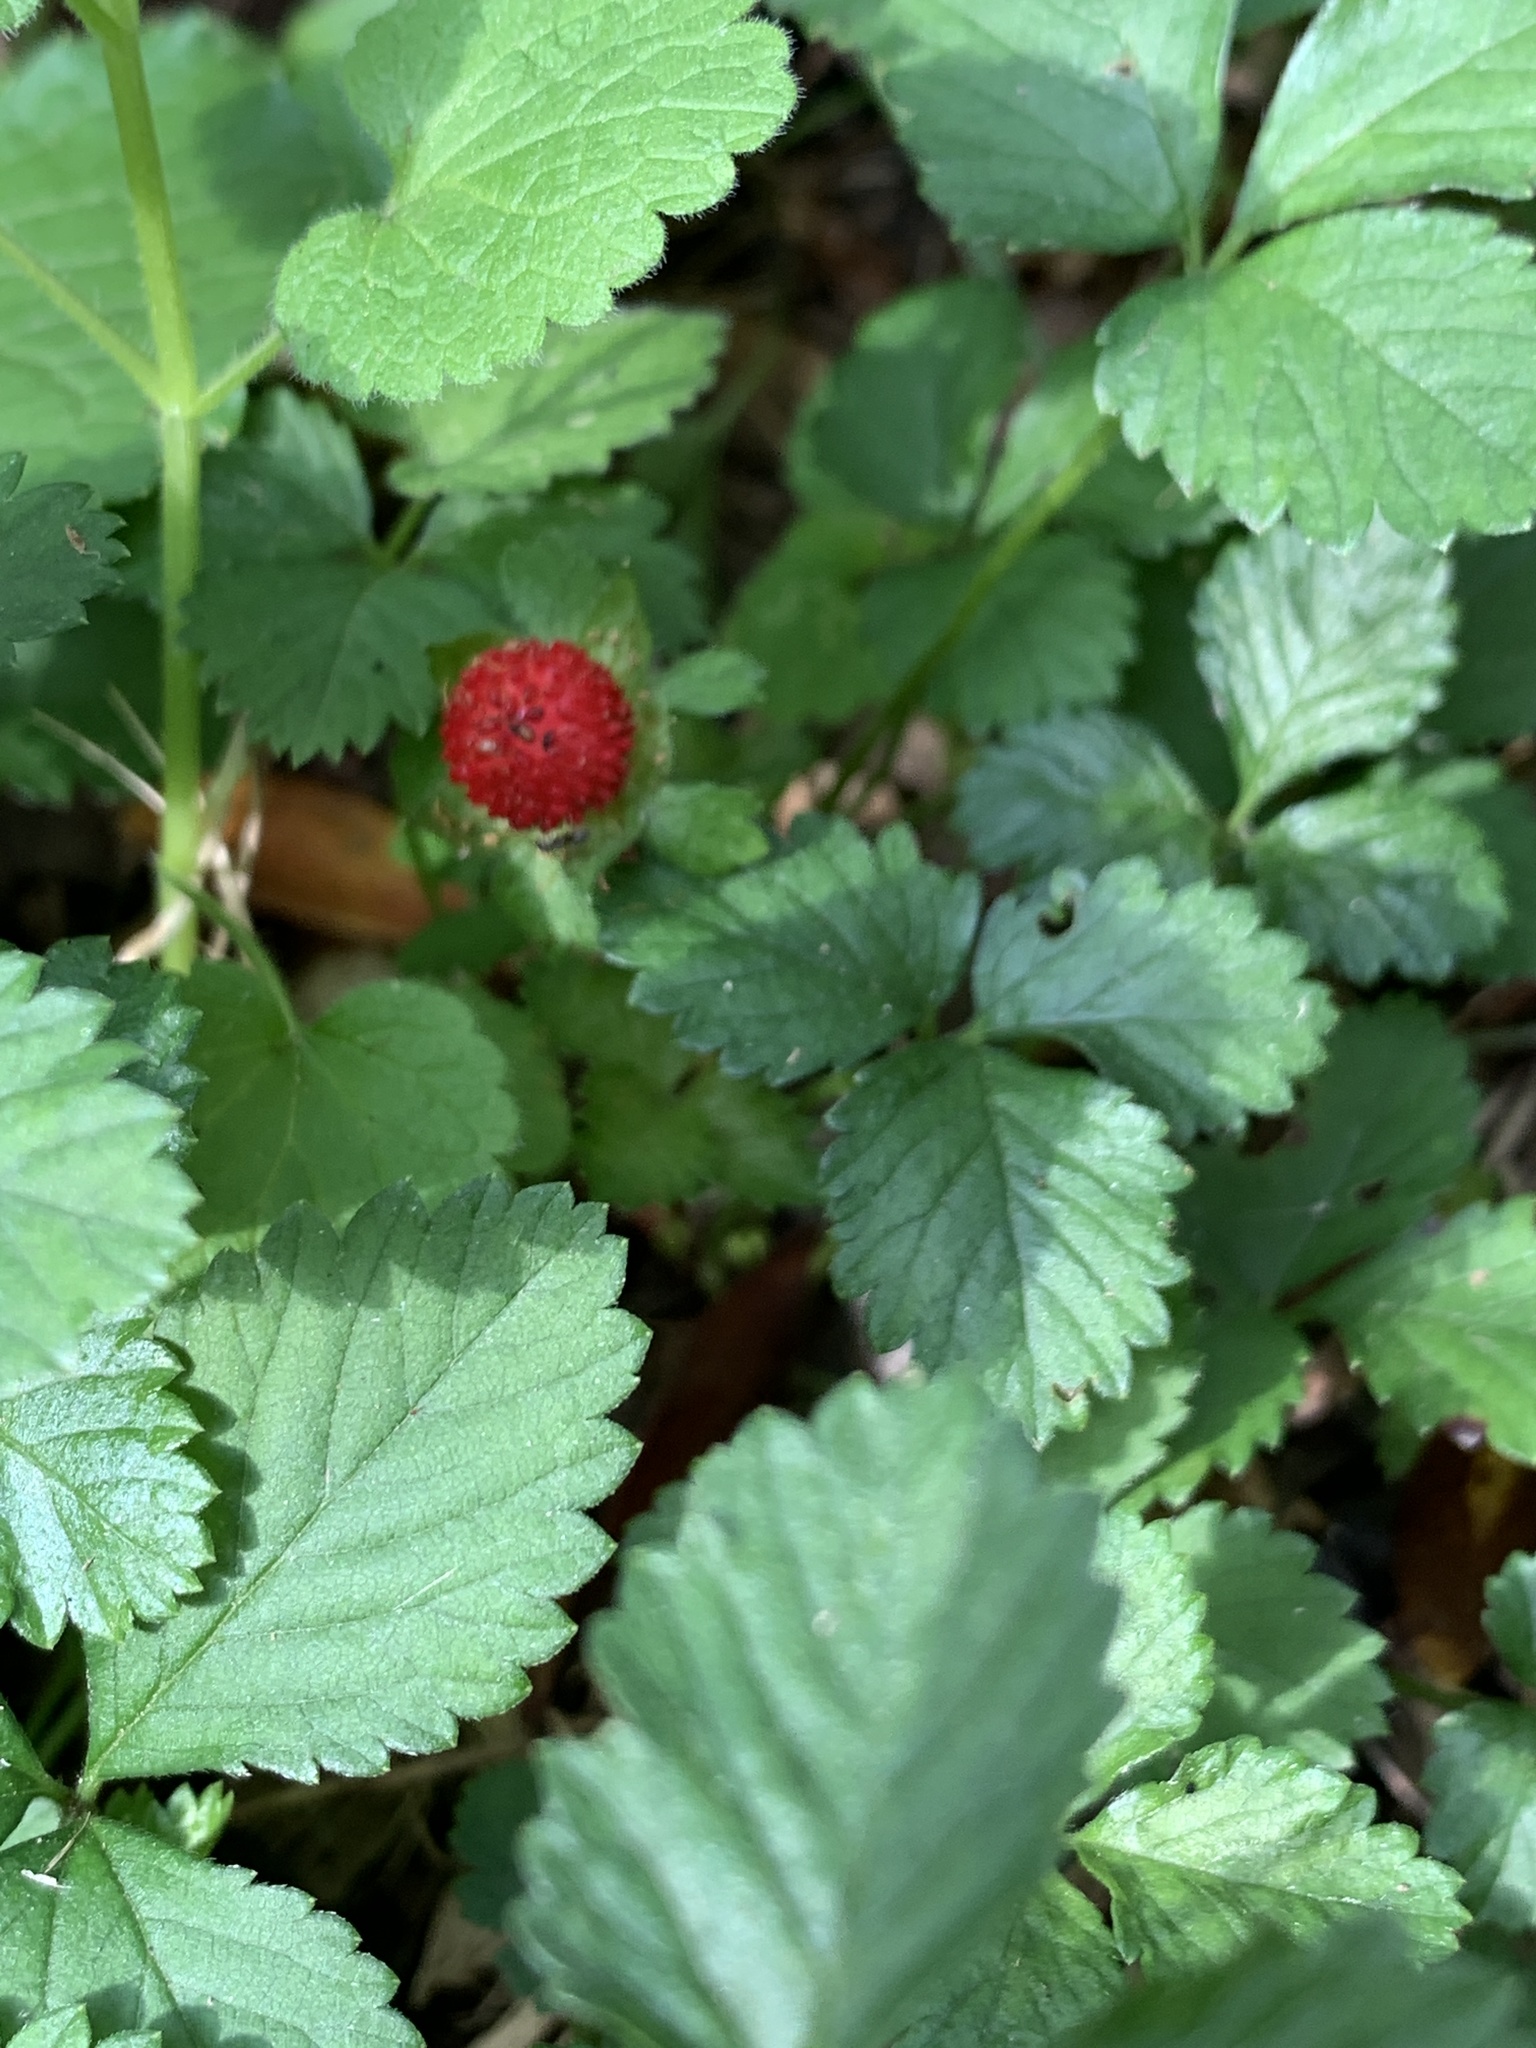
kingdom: Plantae
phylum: Tracheophyta
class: Magnoliopsida
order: Rosales
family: Rosaceae
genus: Potentilla
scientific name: Potentilla indica
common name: Yellow-flowered strawberry
